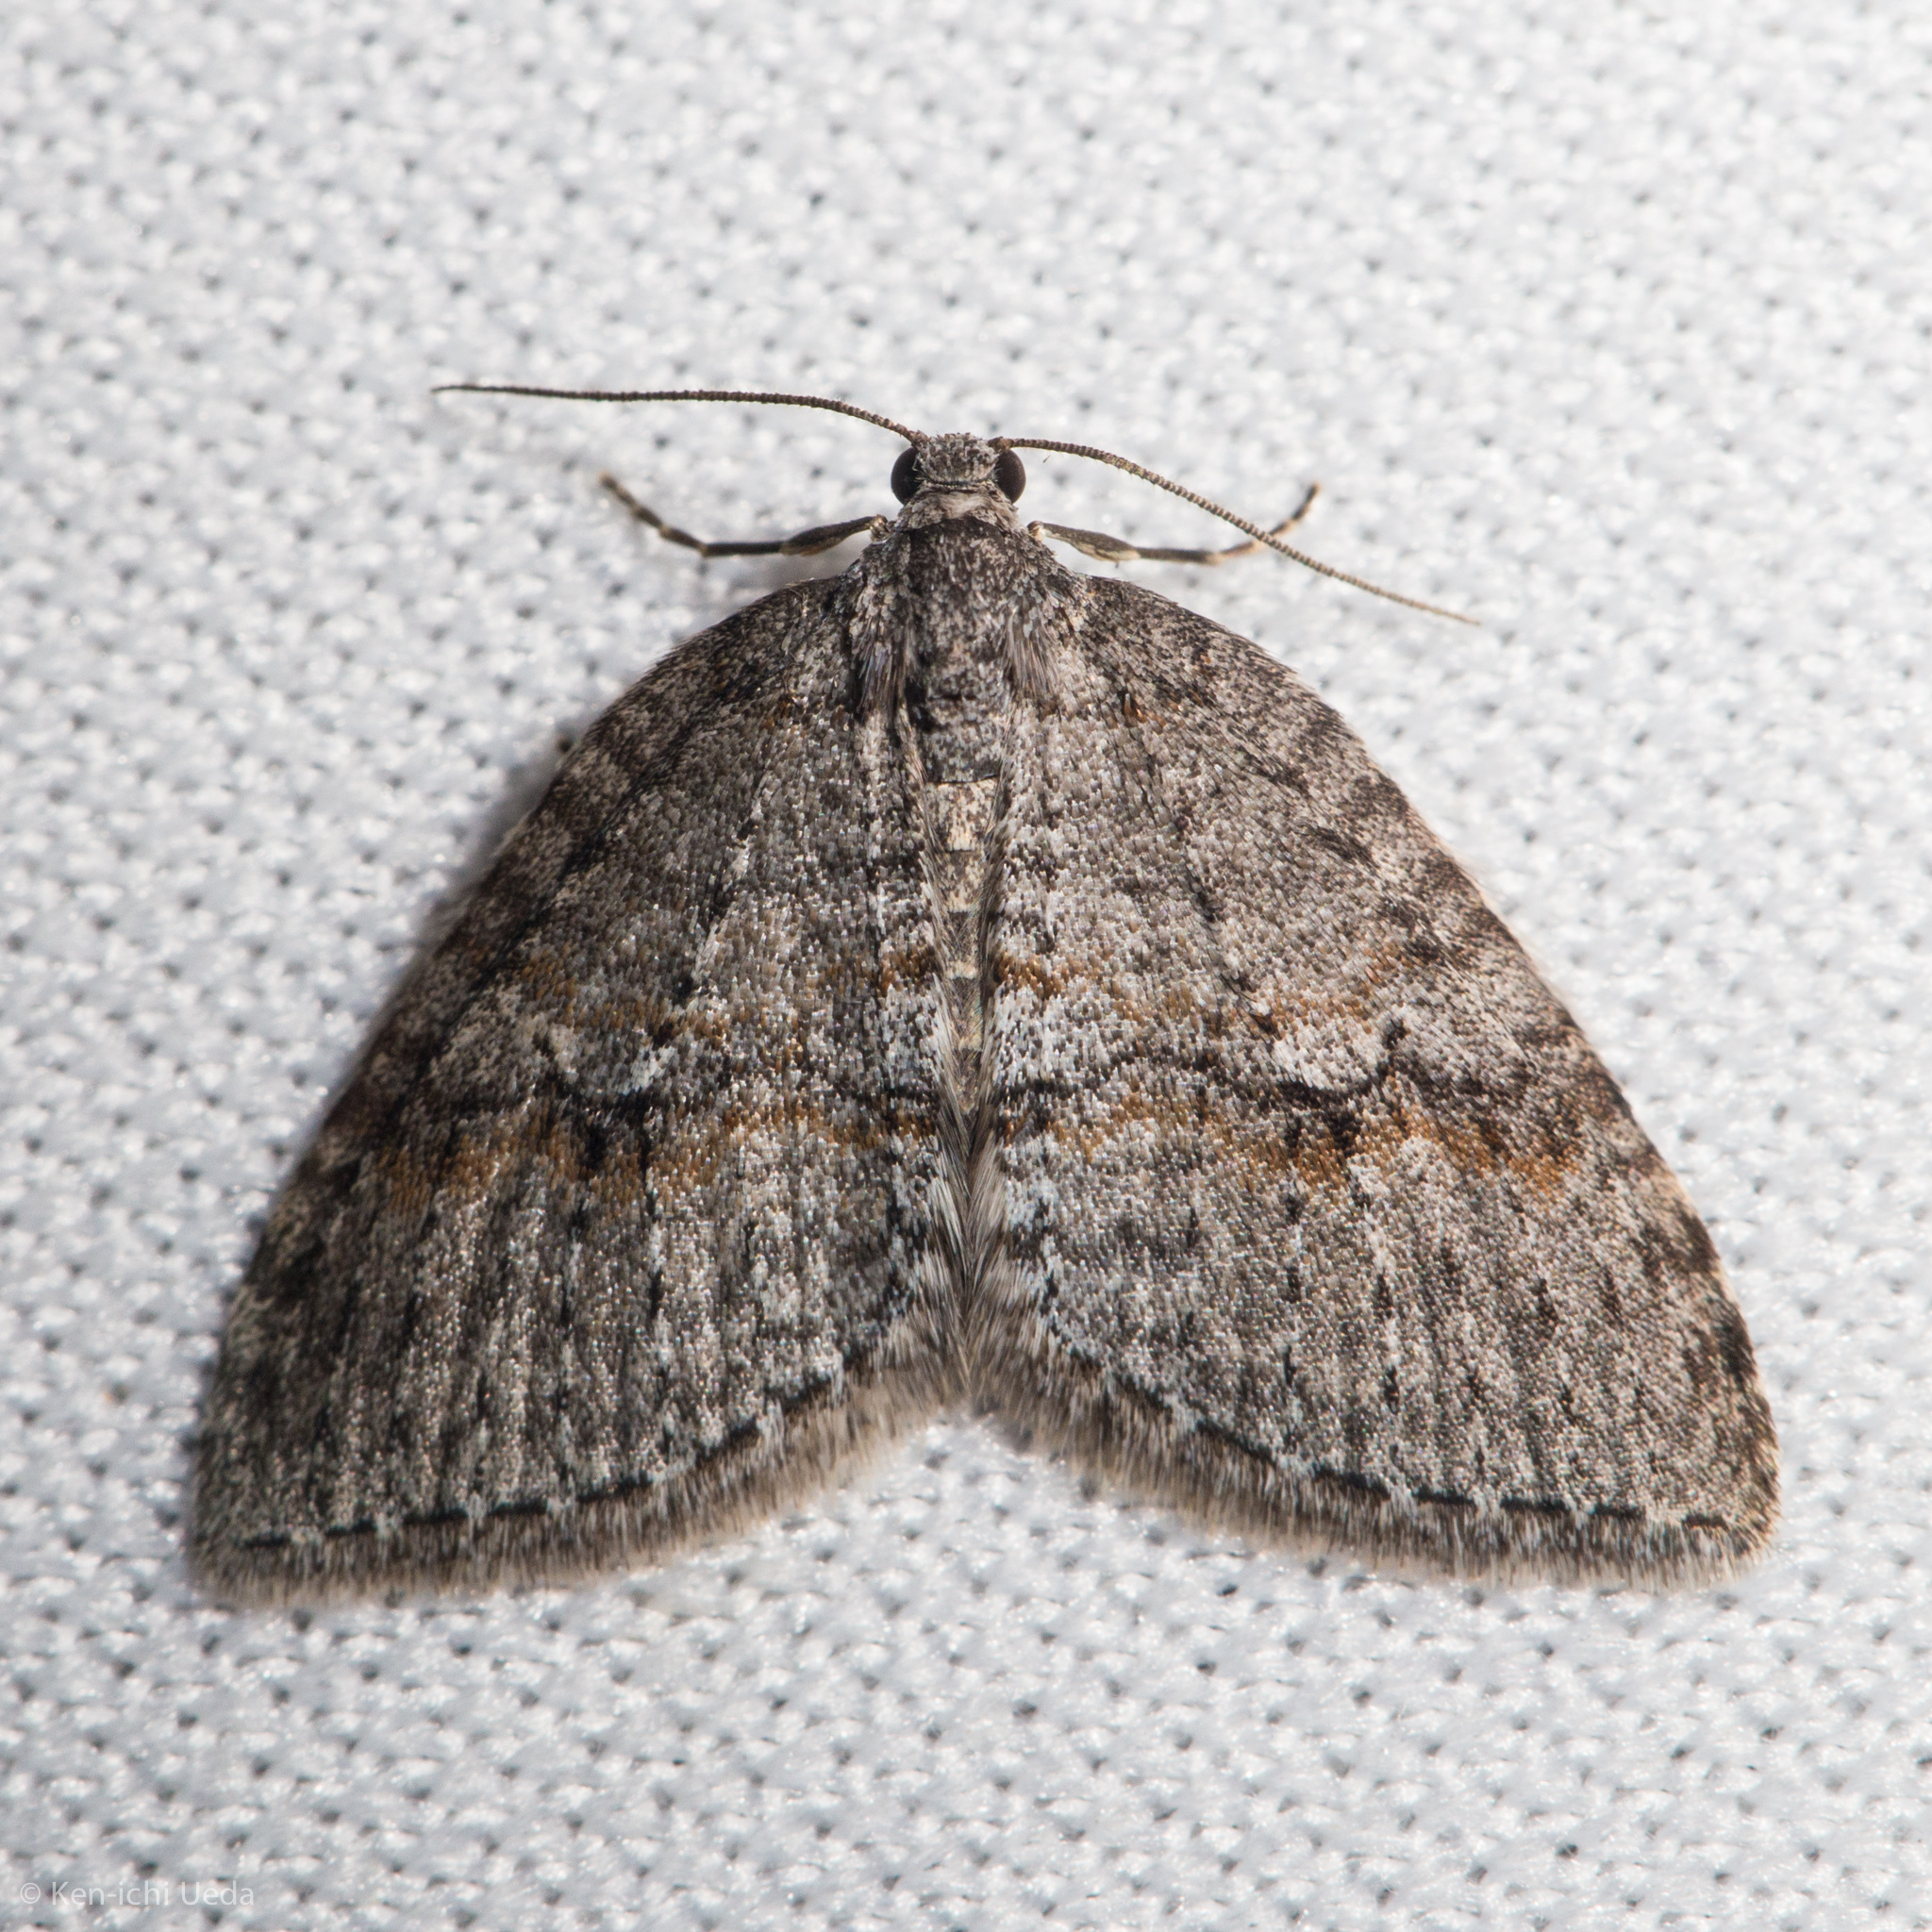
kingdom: Animalia
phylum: Arthropoda
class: Insecta
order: Lepidoptera
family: Geometridae
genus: Venusia
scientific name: Venusia
